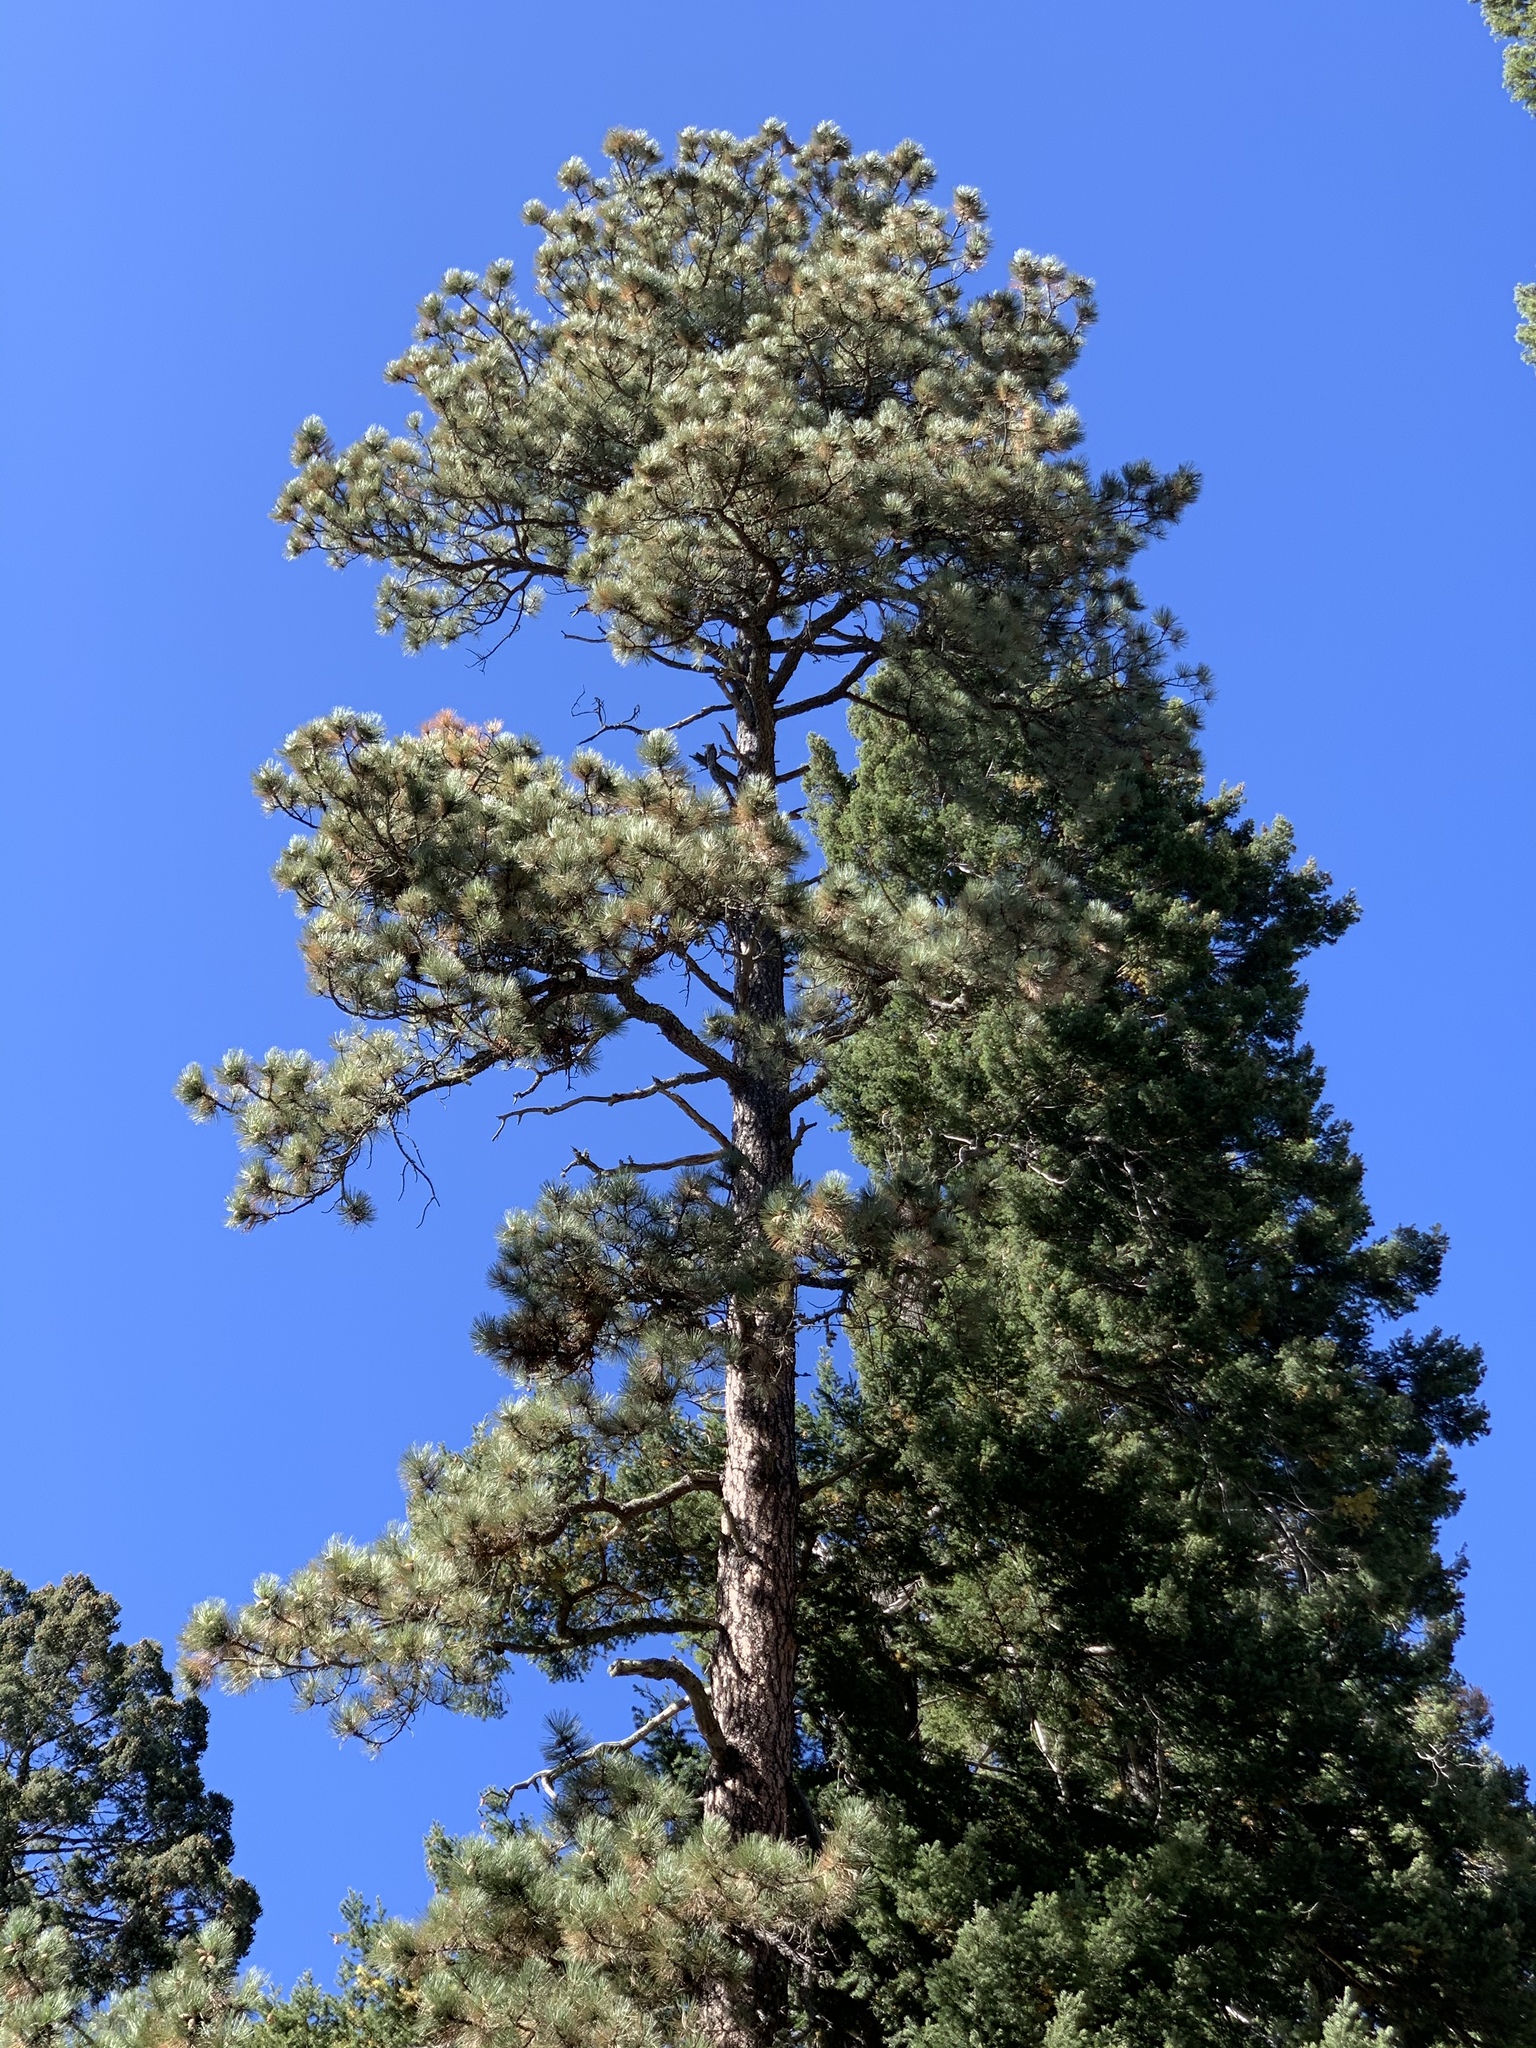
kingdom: Plantae
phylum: Tracheophyta
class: Pinopsida
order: Pinales
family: Pinaceae
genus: Pinus
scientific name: Pinus ponderosa
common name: Western yellow-pine
